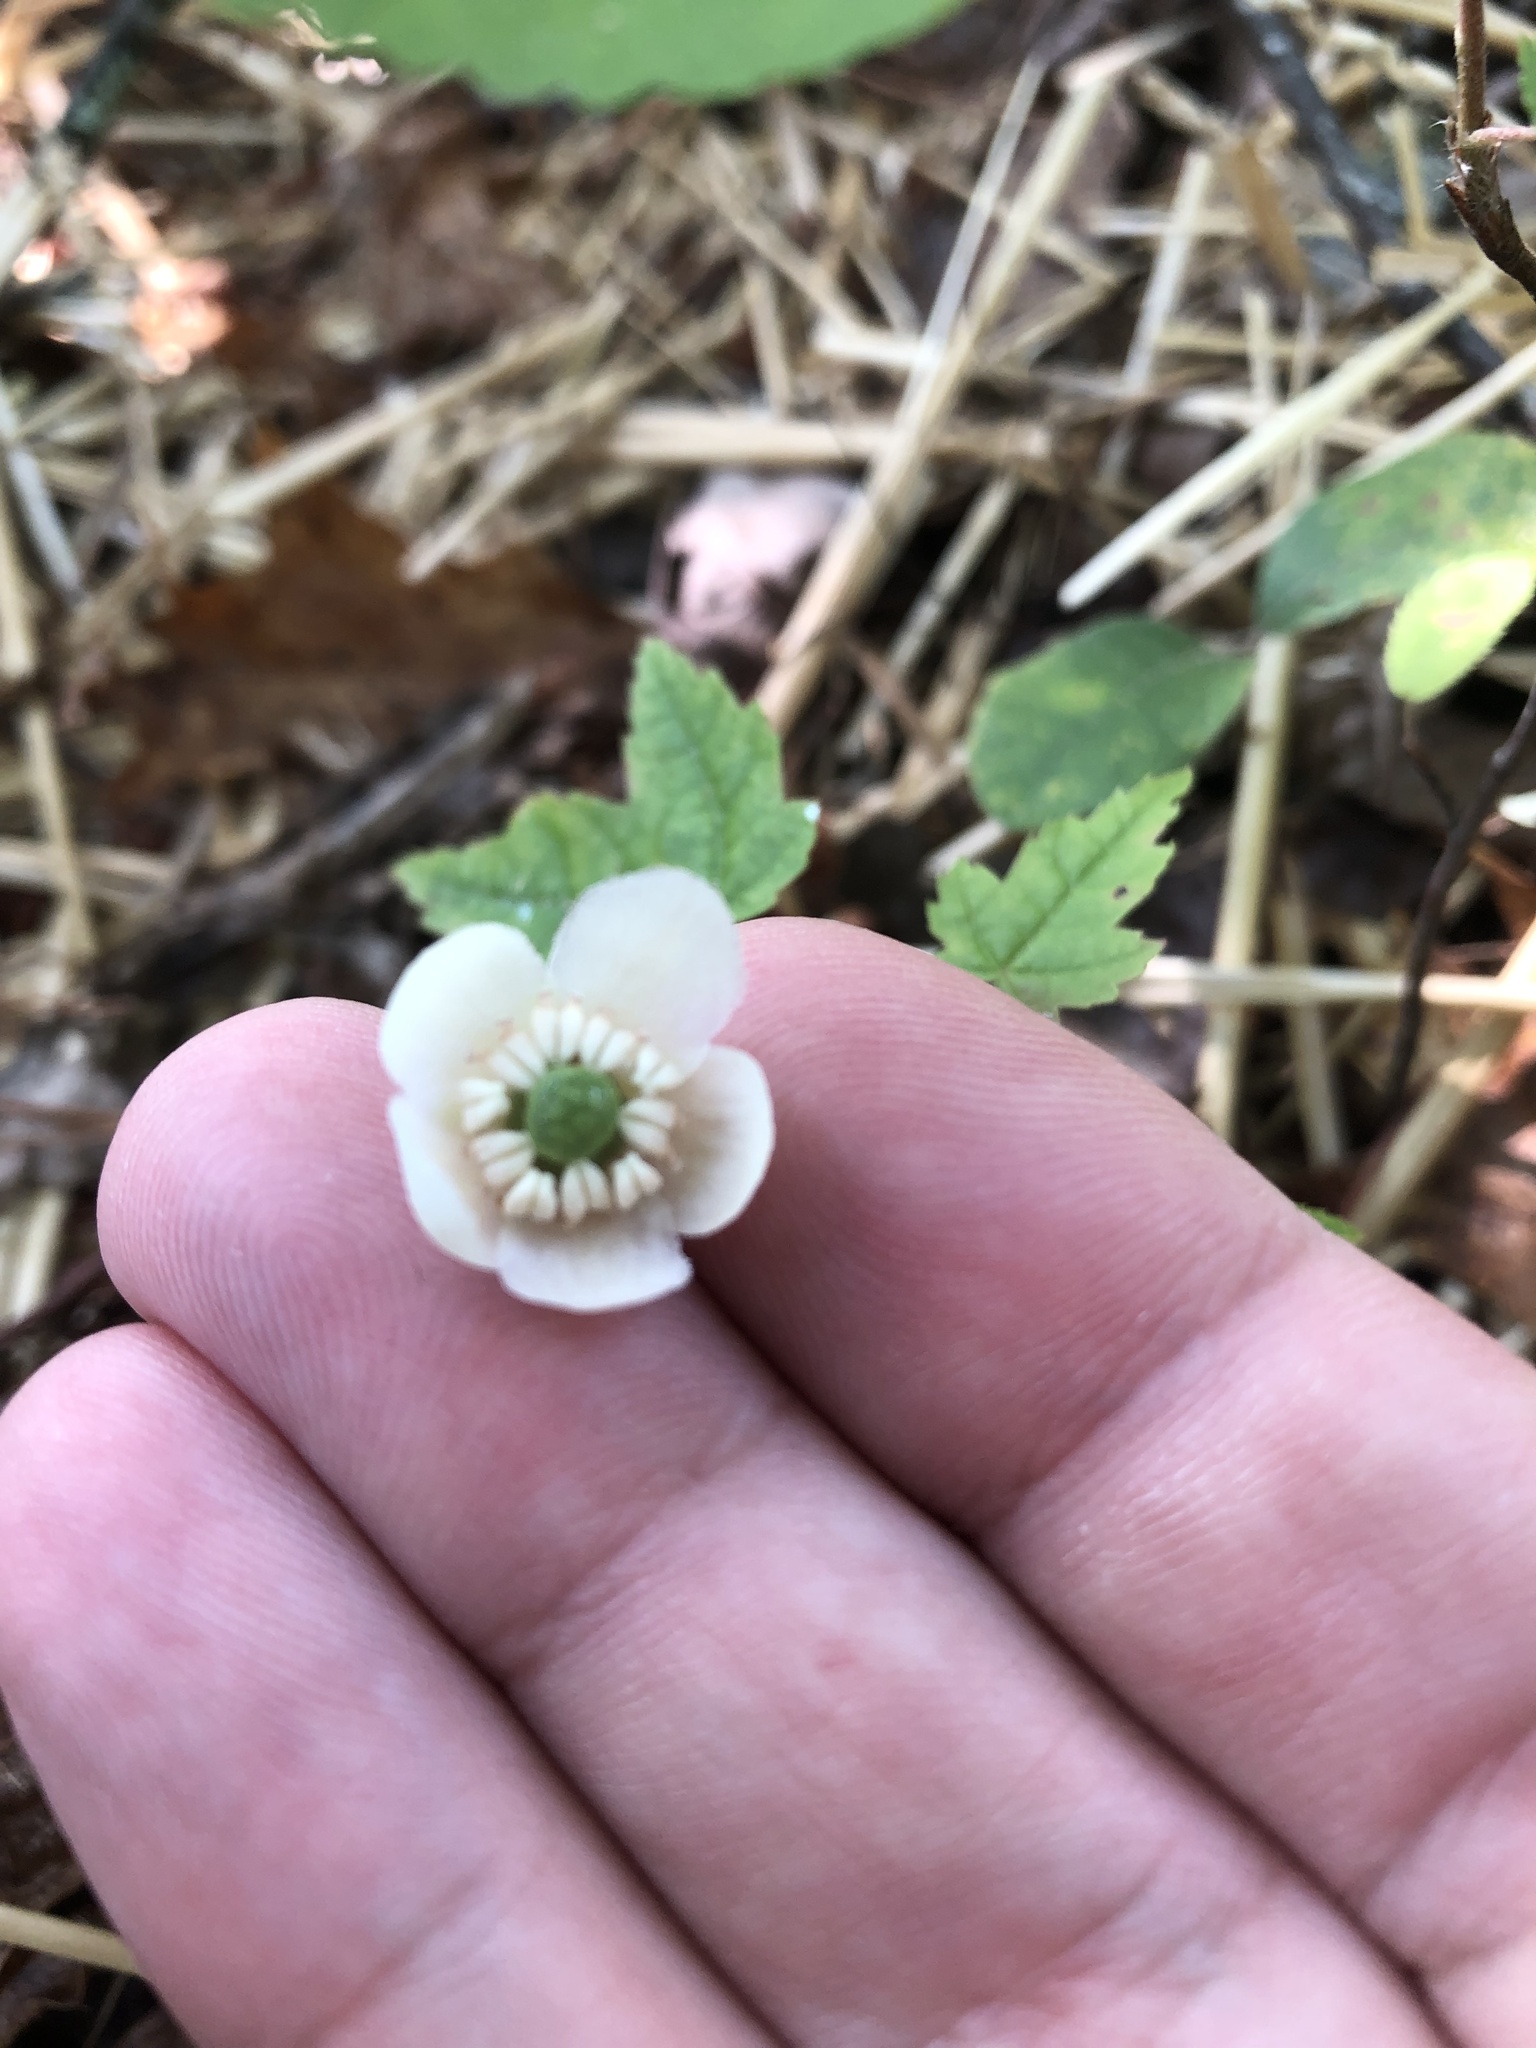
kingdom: Plantae
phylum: Tracheophyta
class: Magnoliopsida
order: Ericales
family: Ericaceae
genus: Chimaphila
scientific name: Chimaphila maculata
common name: Spotted pipsissewa
